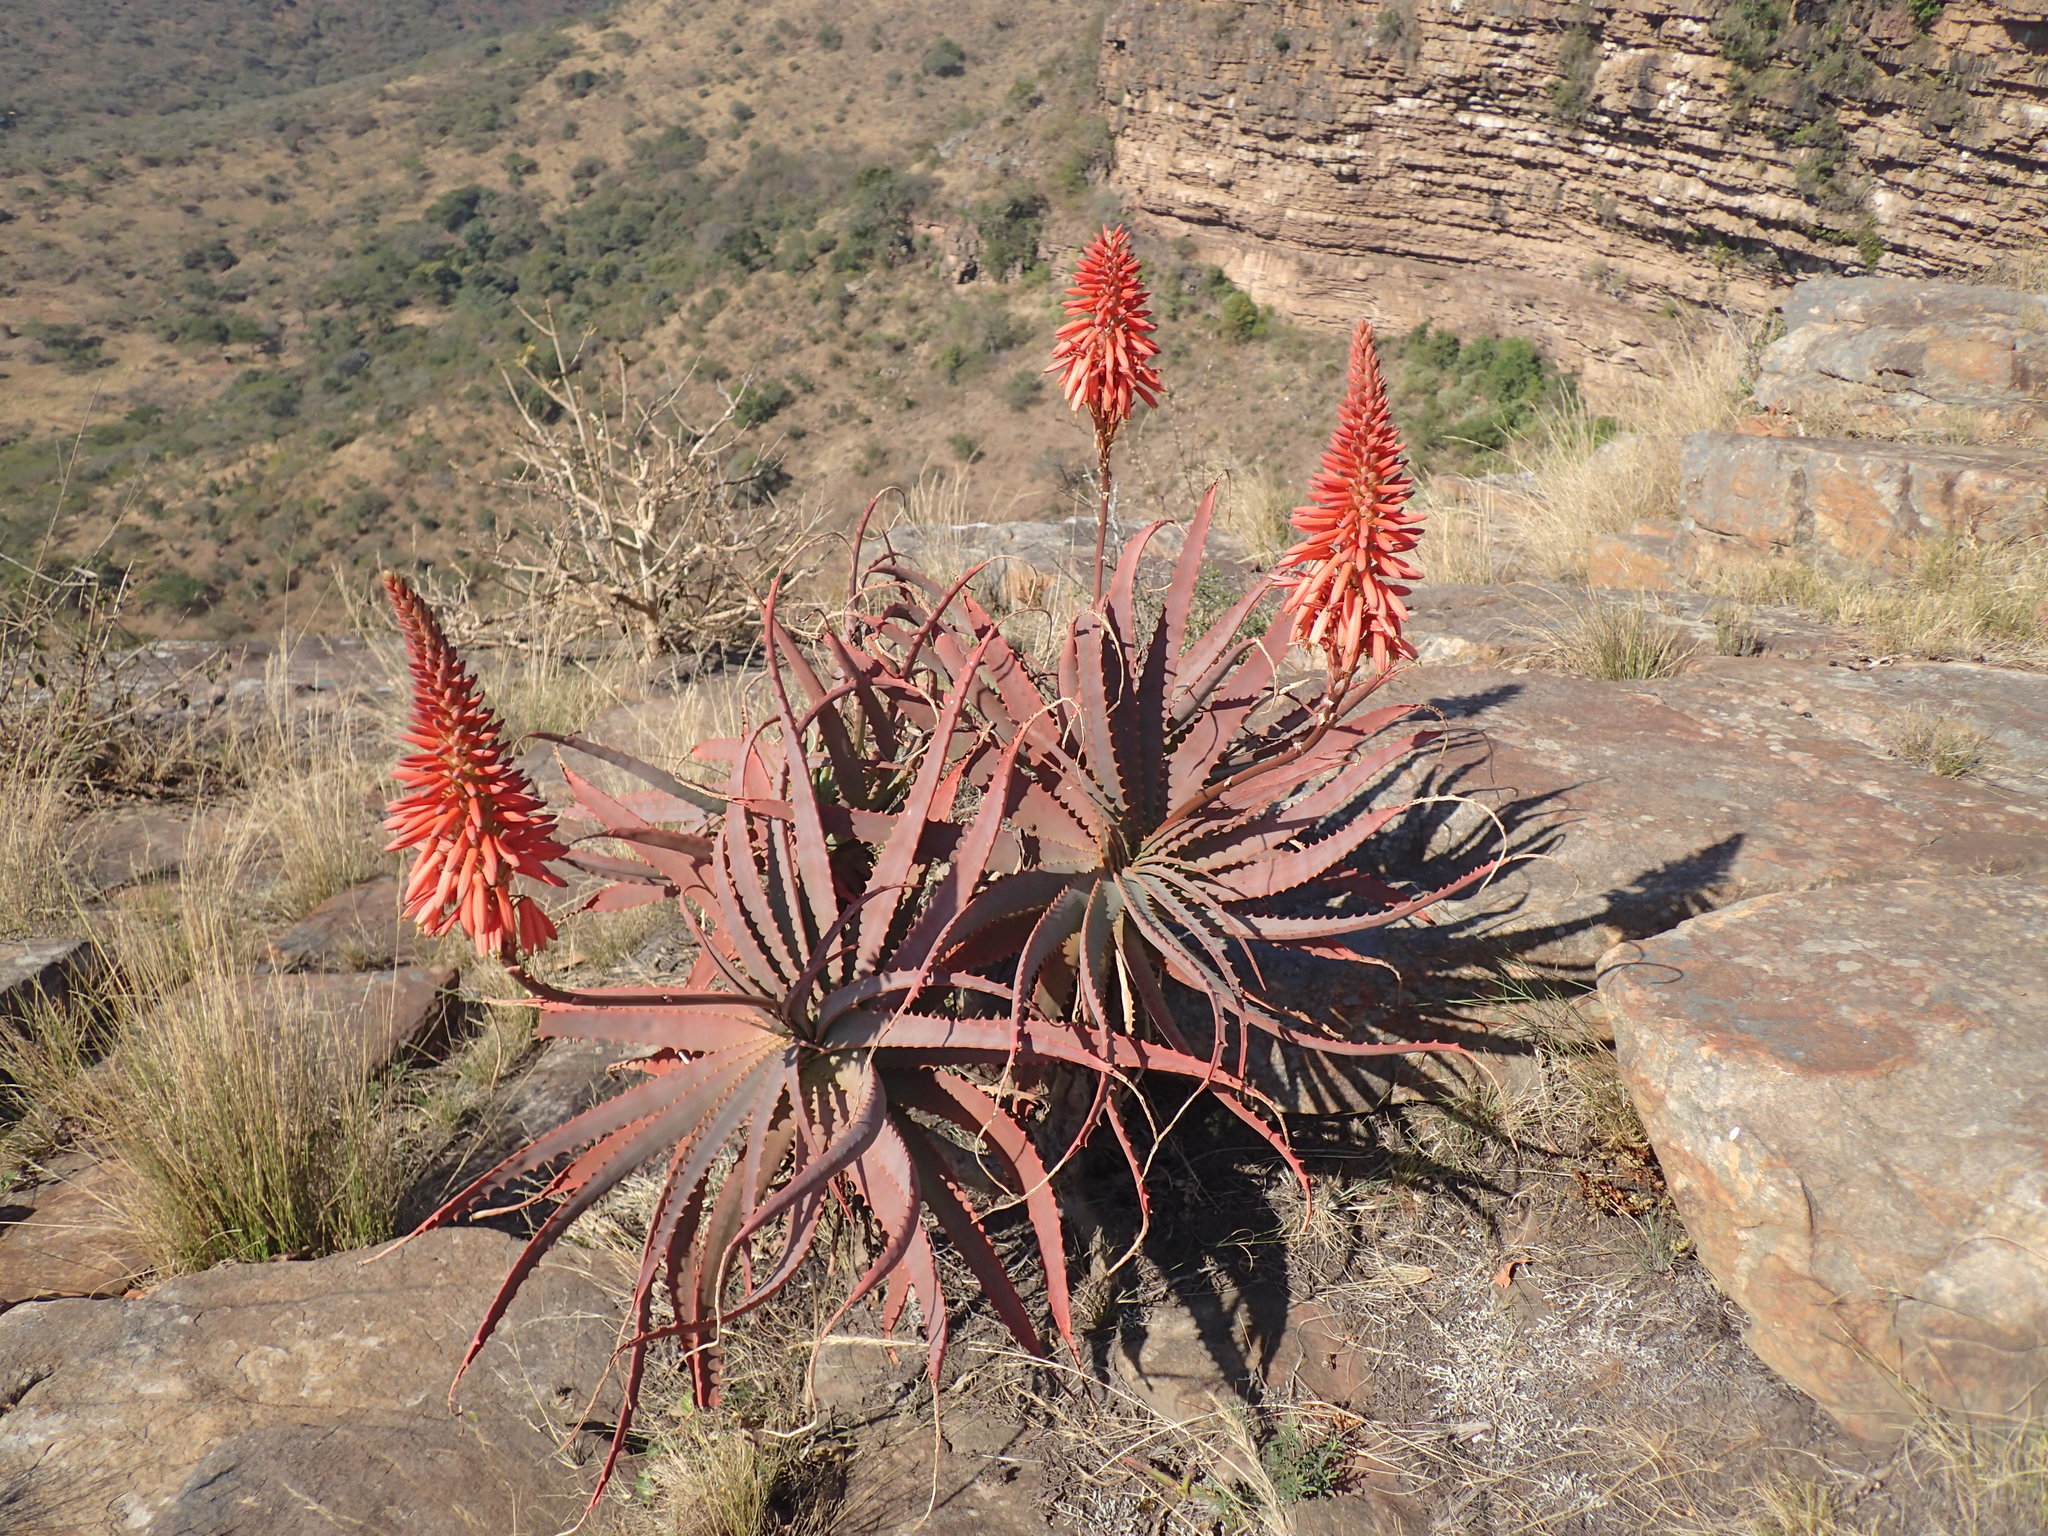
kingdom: Plantae
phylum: Tracheophyta
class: Liliopsida
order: Asparagales
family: Asphodelaceae
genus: Aloe
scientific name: Aloe arborescens
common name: Candelabra aloe
